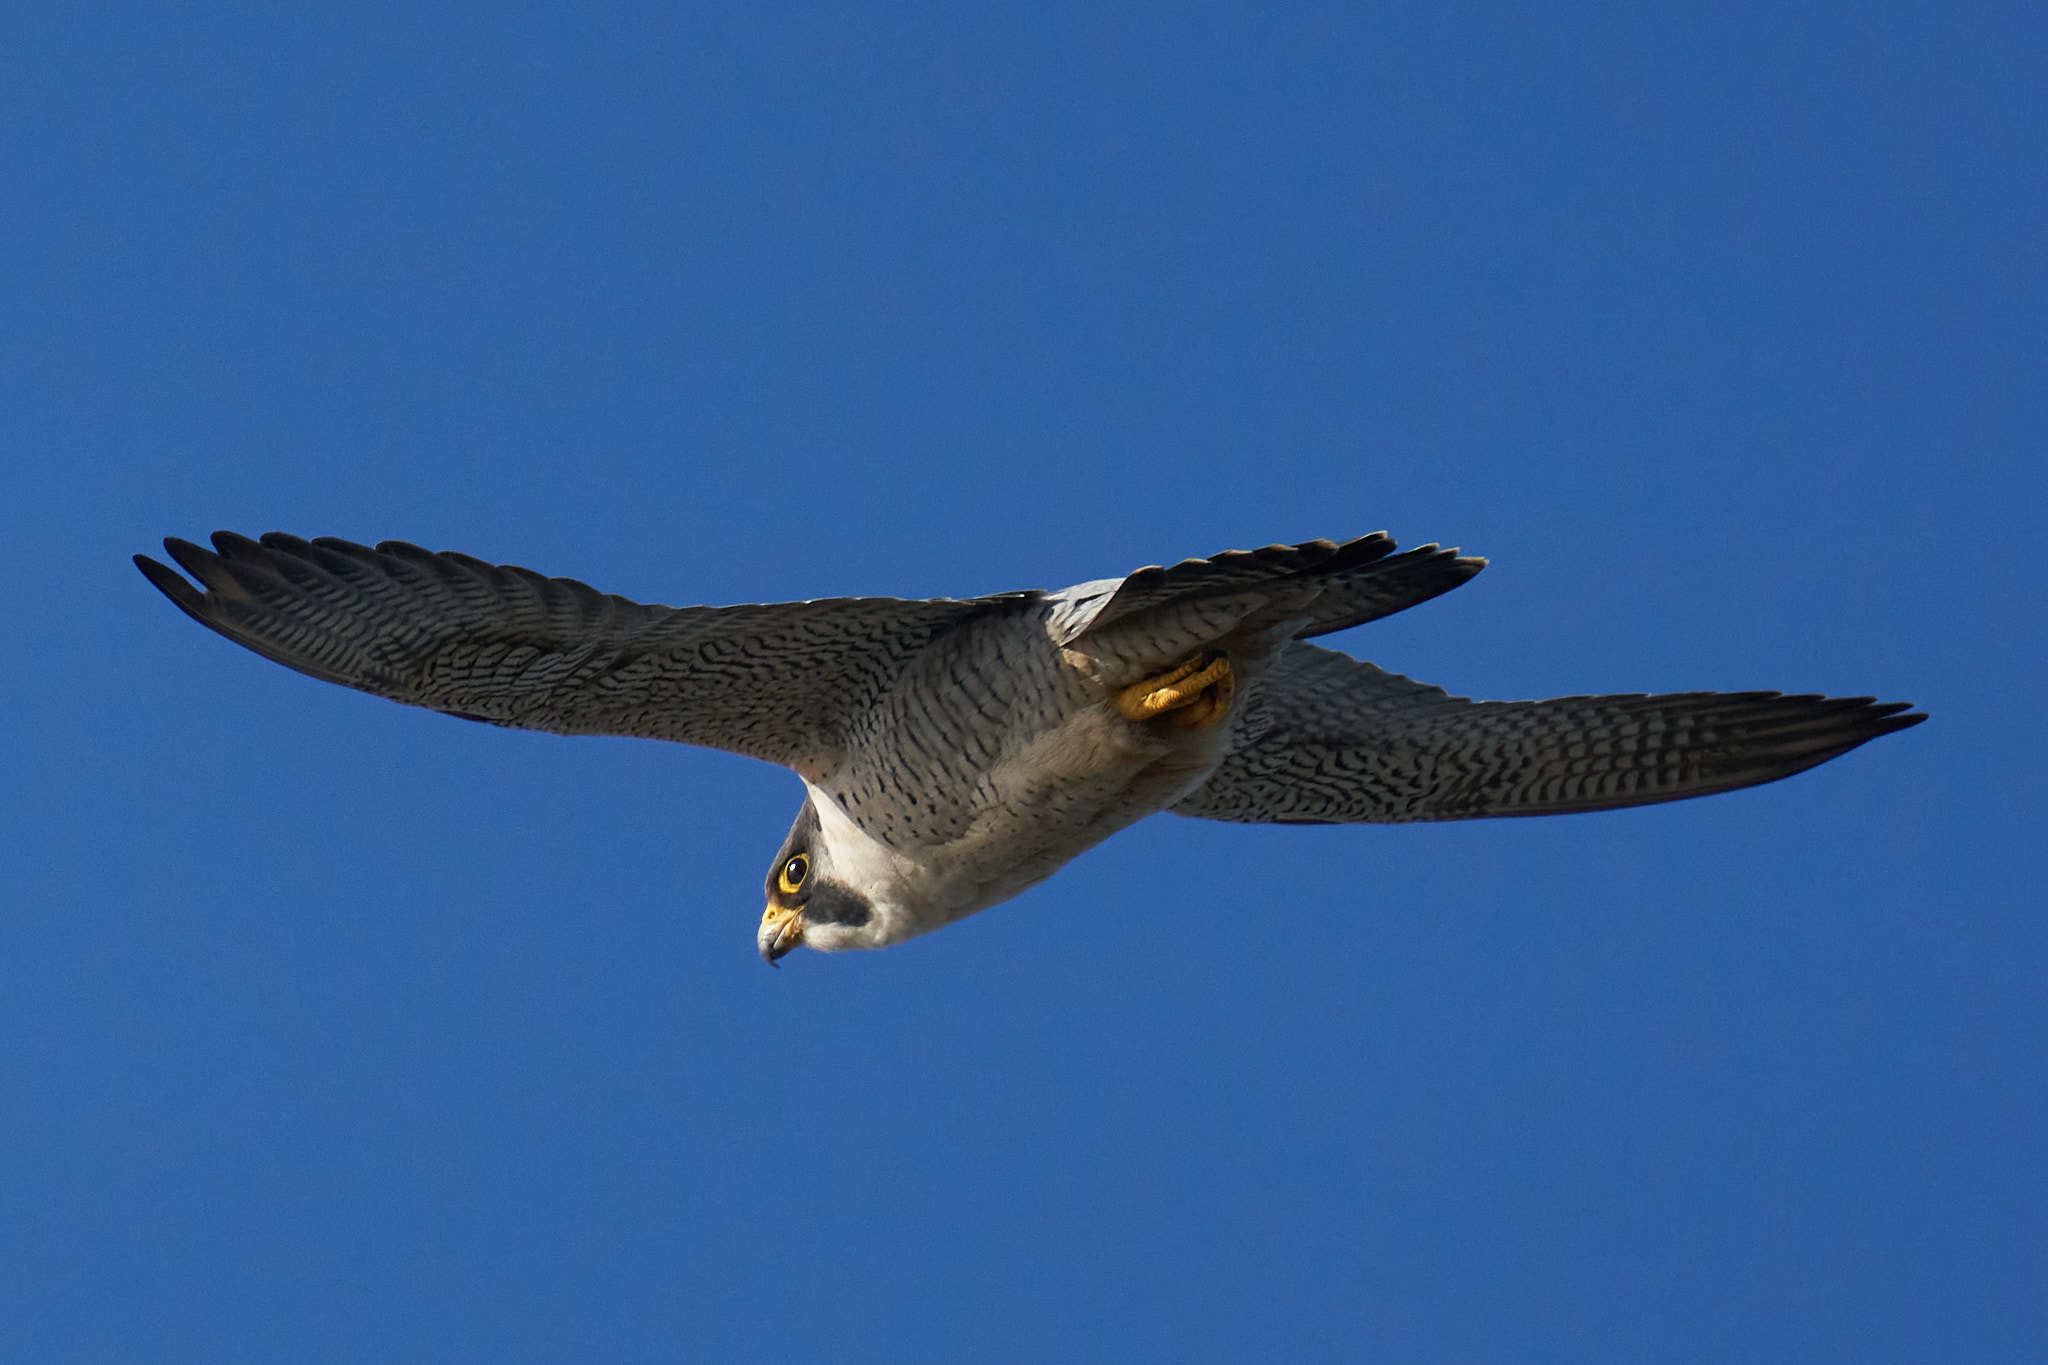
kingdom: Animalia
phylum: Chordata
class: Aves
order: Falconiformes
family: Falconidae
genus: Falco
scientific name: Falco peregrinus
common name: Peregrine falcon
